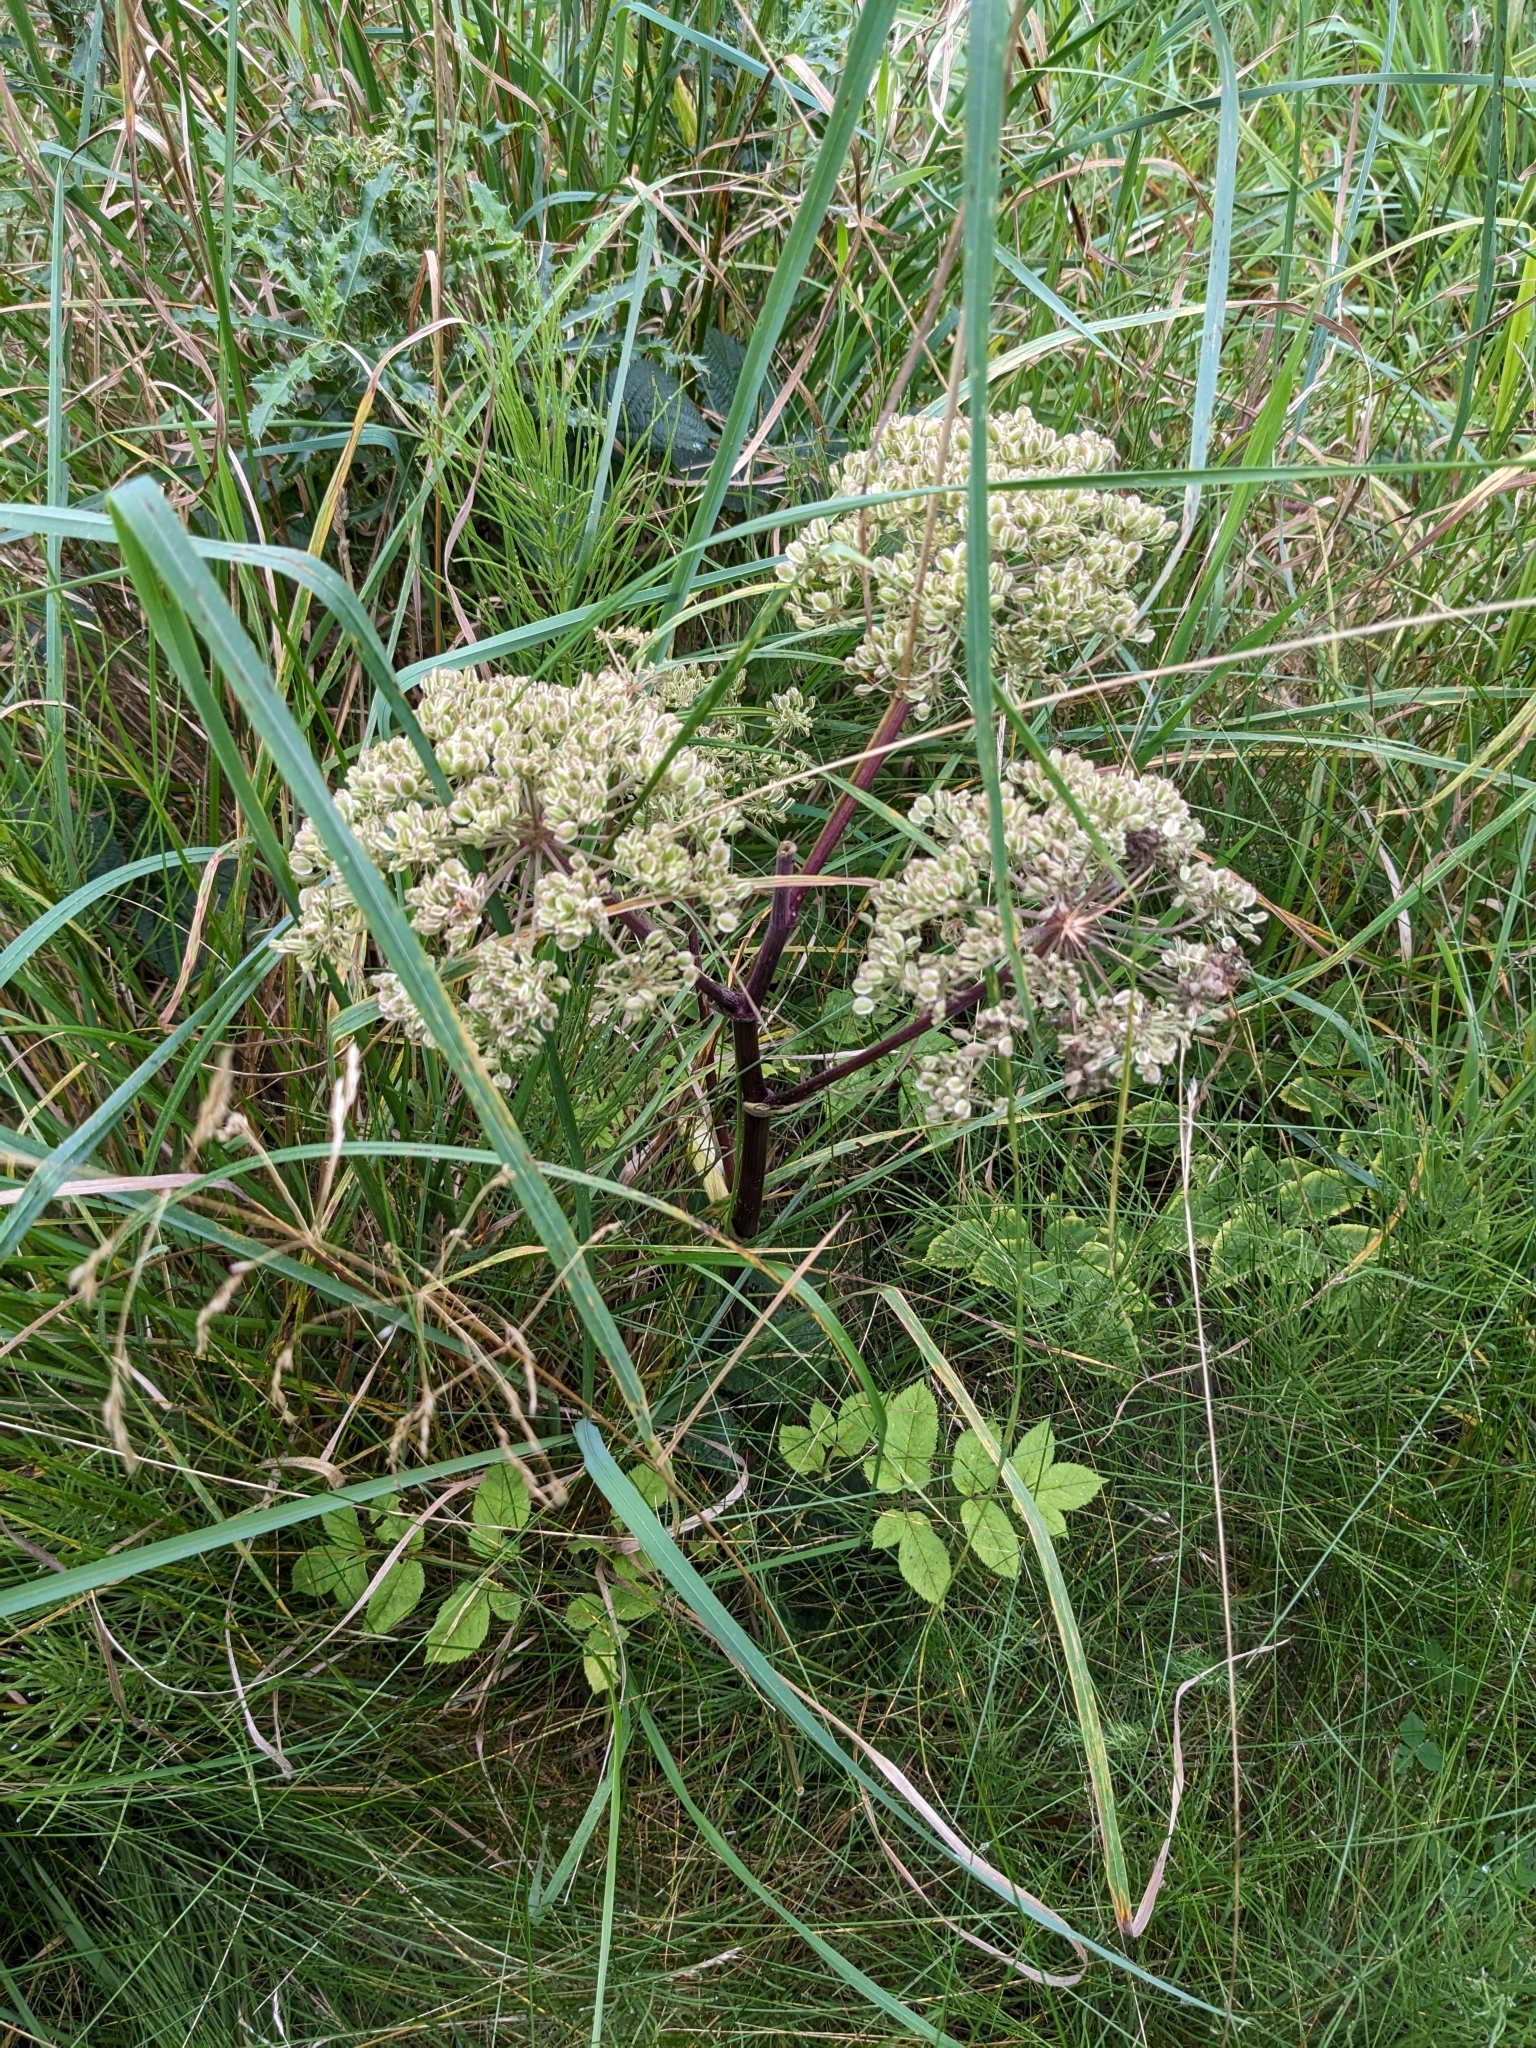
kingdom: Plantae
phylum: Tracheophyta
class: Magnoliopsida
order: Apiales
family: Apiaceae
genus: Angelica
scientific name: Angelica sylvestris
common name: Wild angelica
